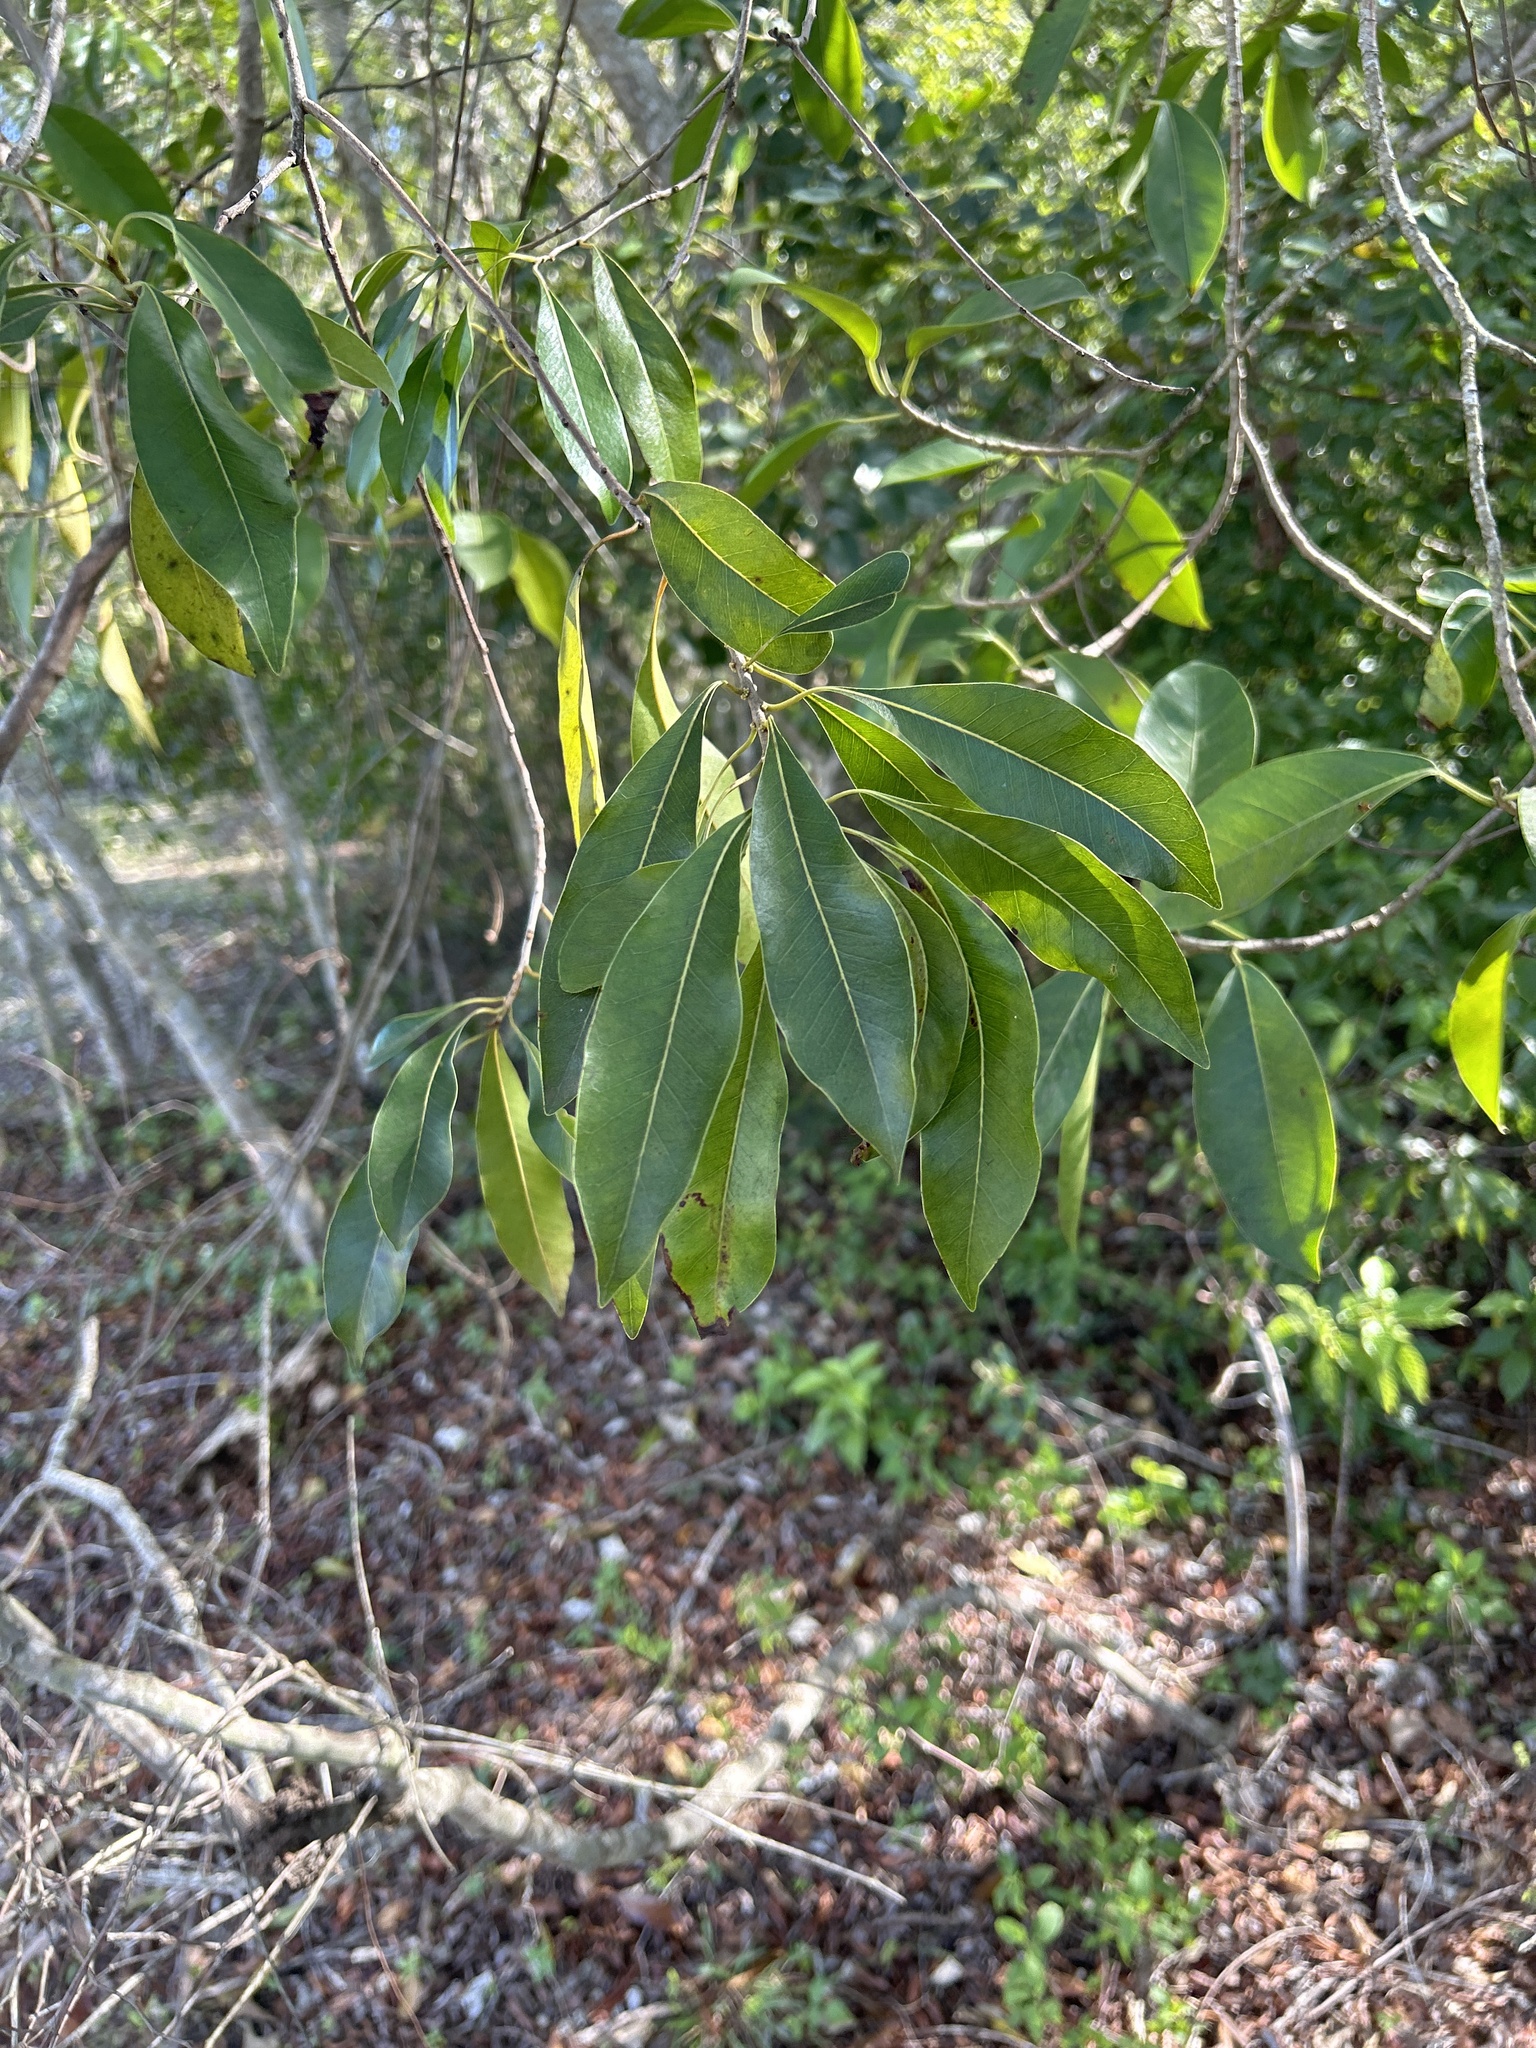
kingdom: Plantae
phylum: Tracheophyta
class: Magnoliopsida
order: Ericales
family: Sapotaceae
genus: Sideroxylon
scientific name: Sideroxylon salicifolium
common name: White bully
